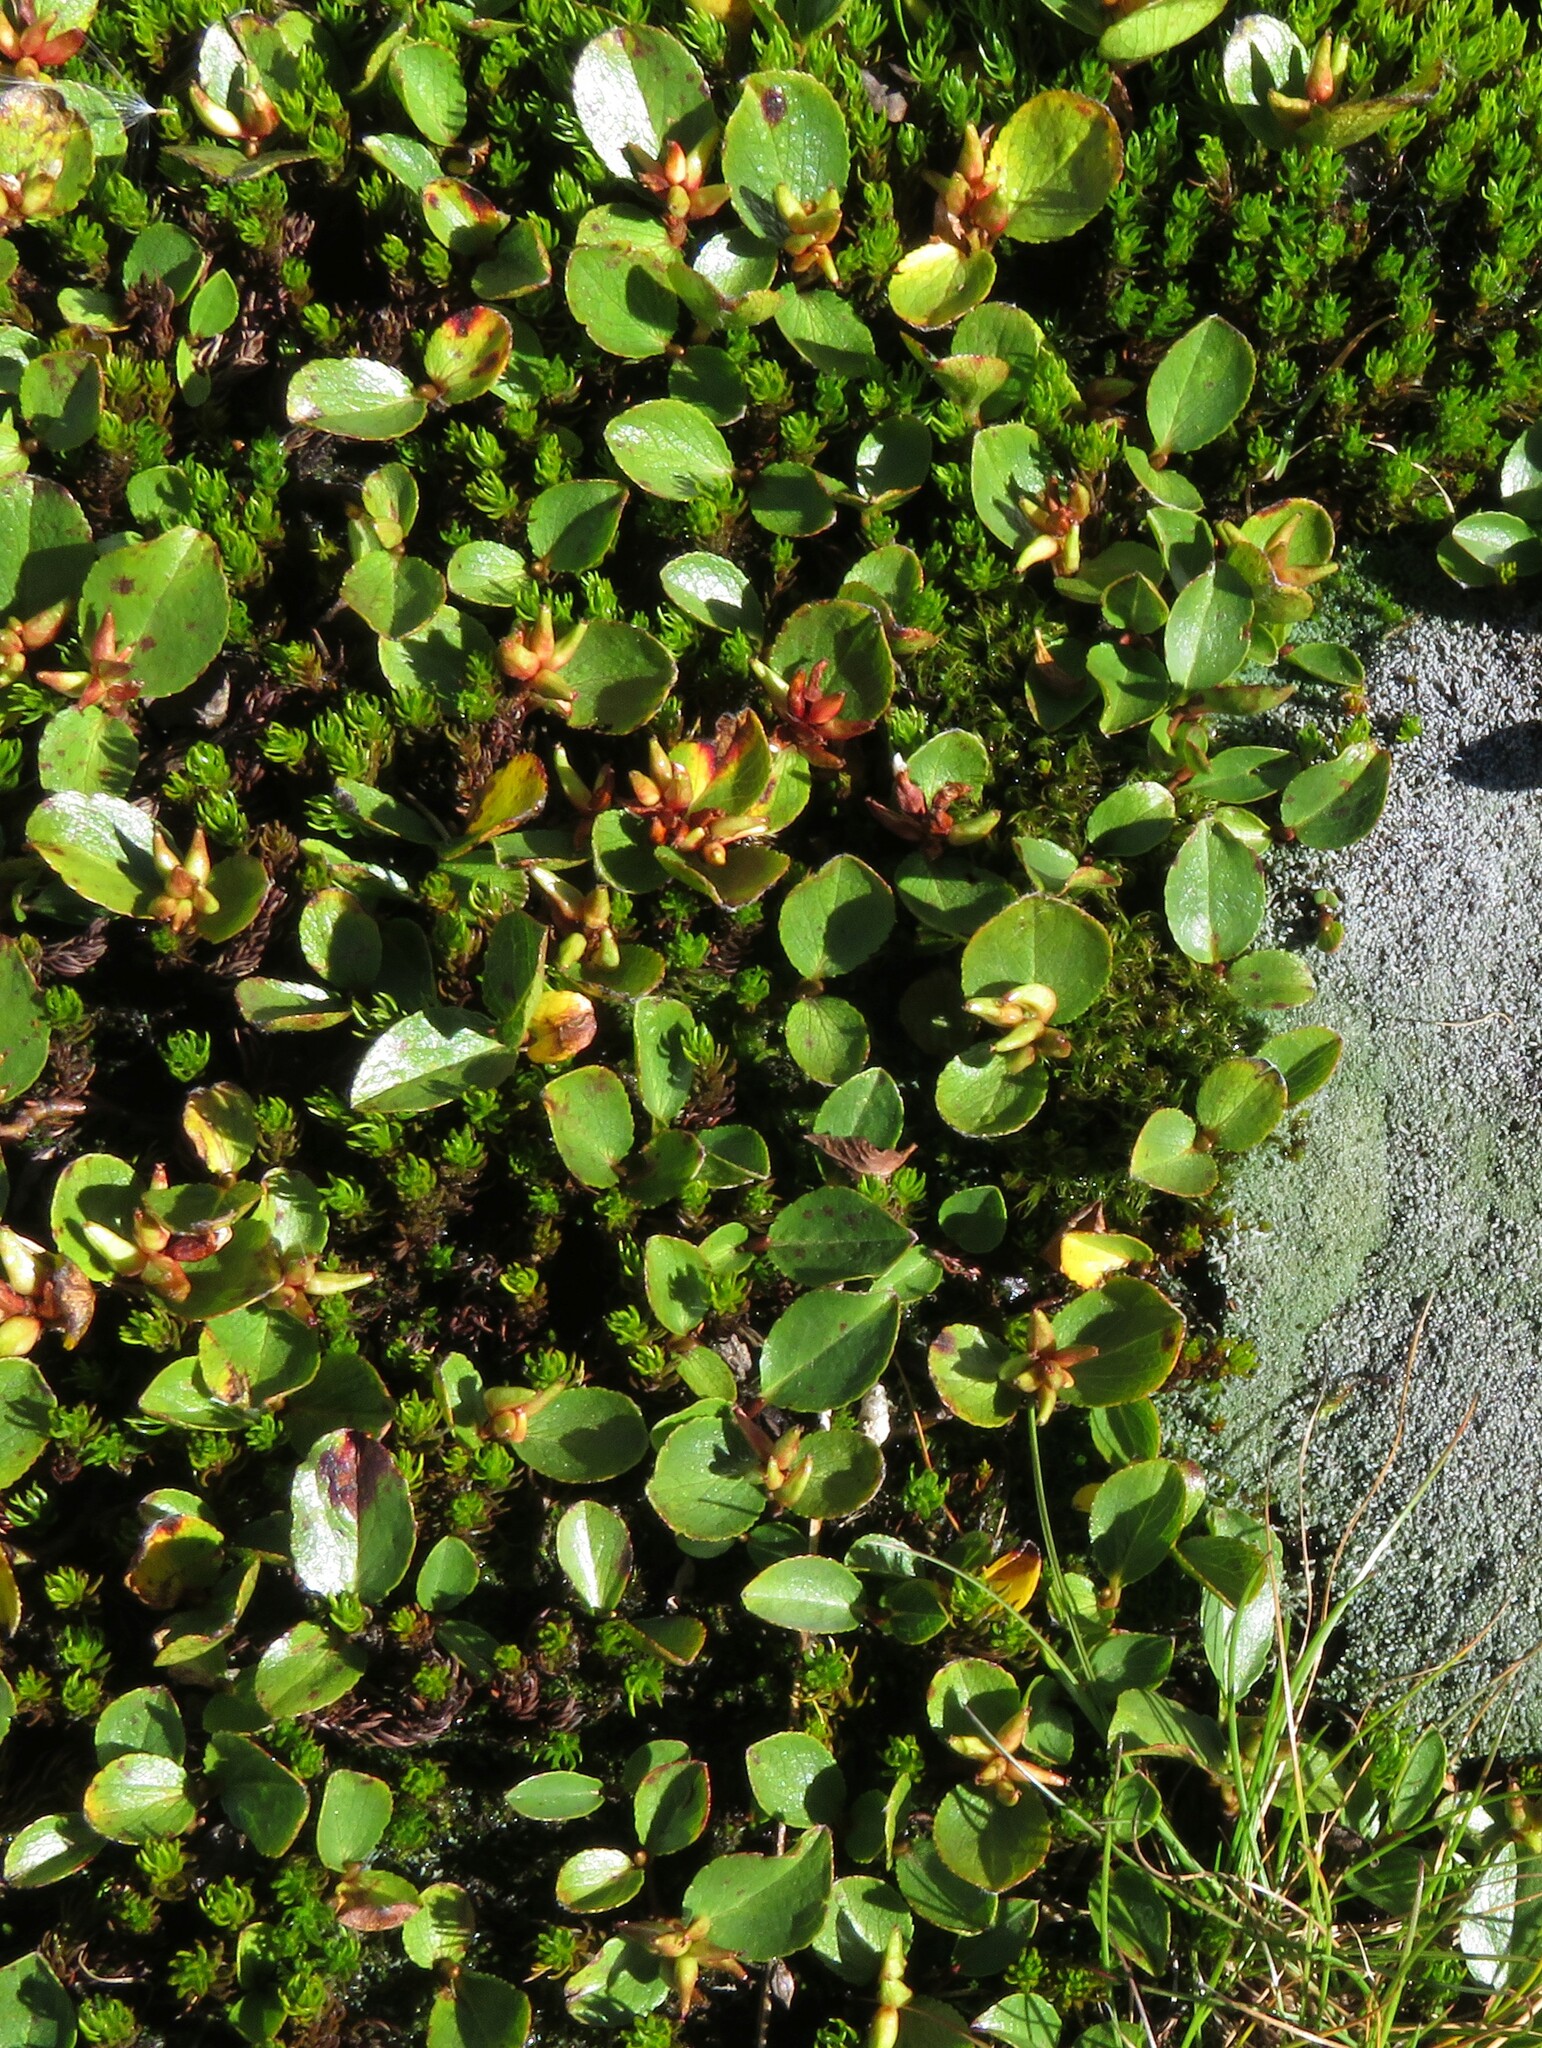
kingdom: Plantae
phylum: Tracheophyta
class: Magnoliopsida
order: Malpighiales
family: Salicaceae
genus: Salix
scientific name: Salix herbacea
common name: Dwarf willow
